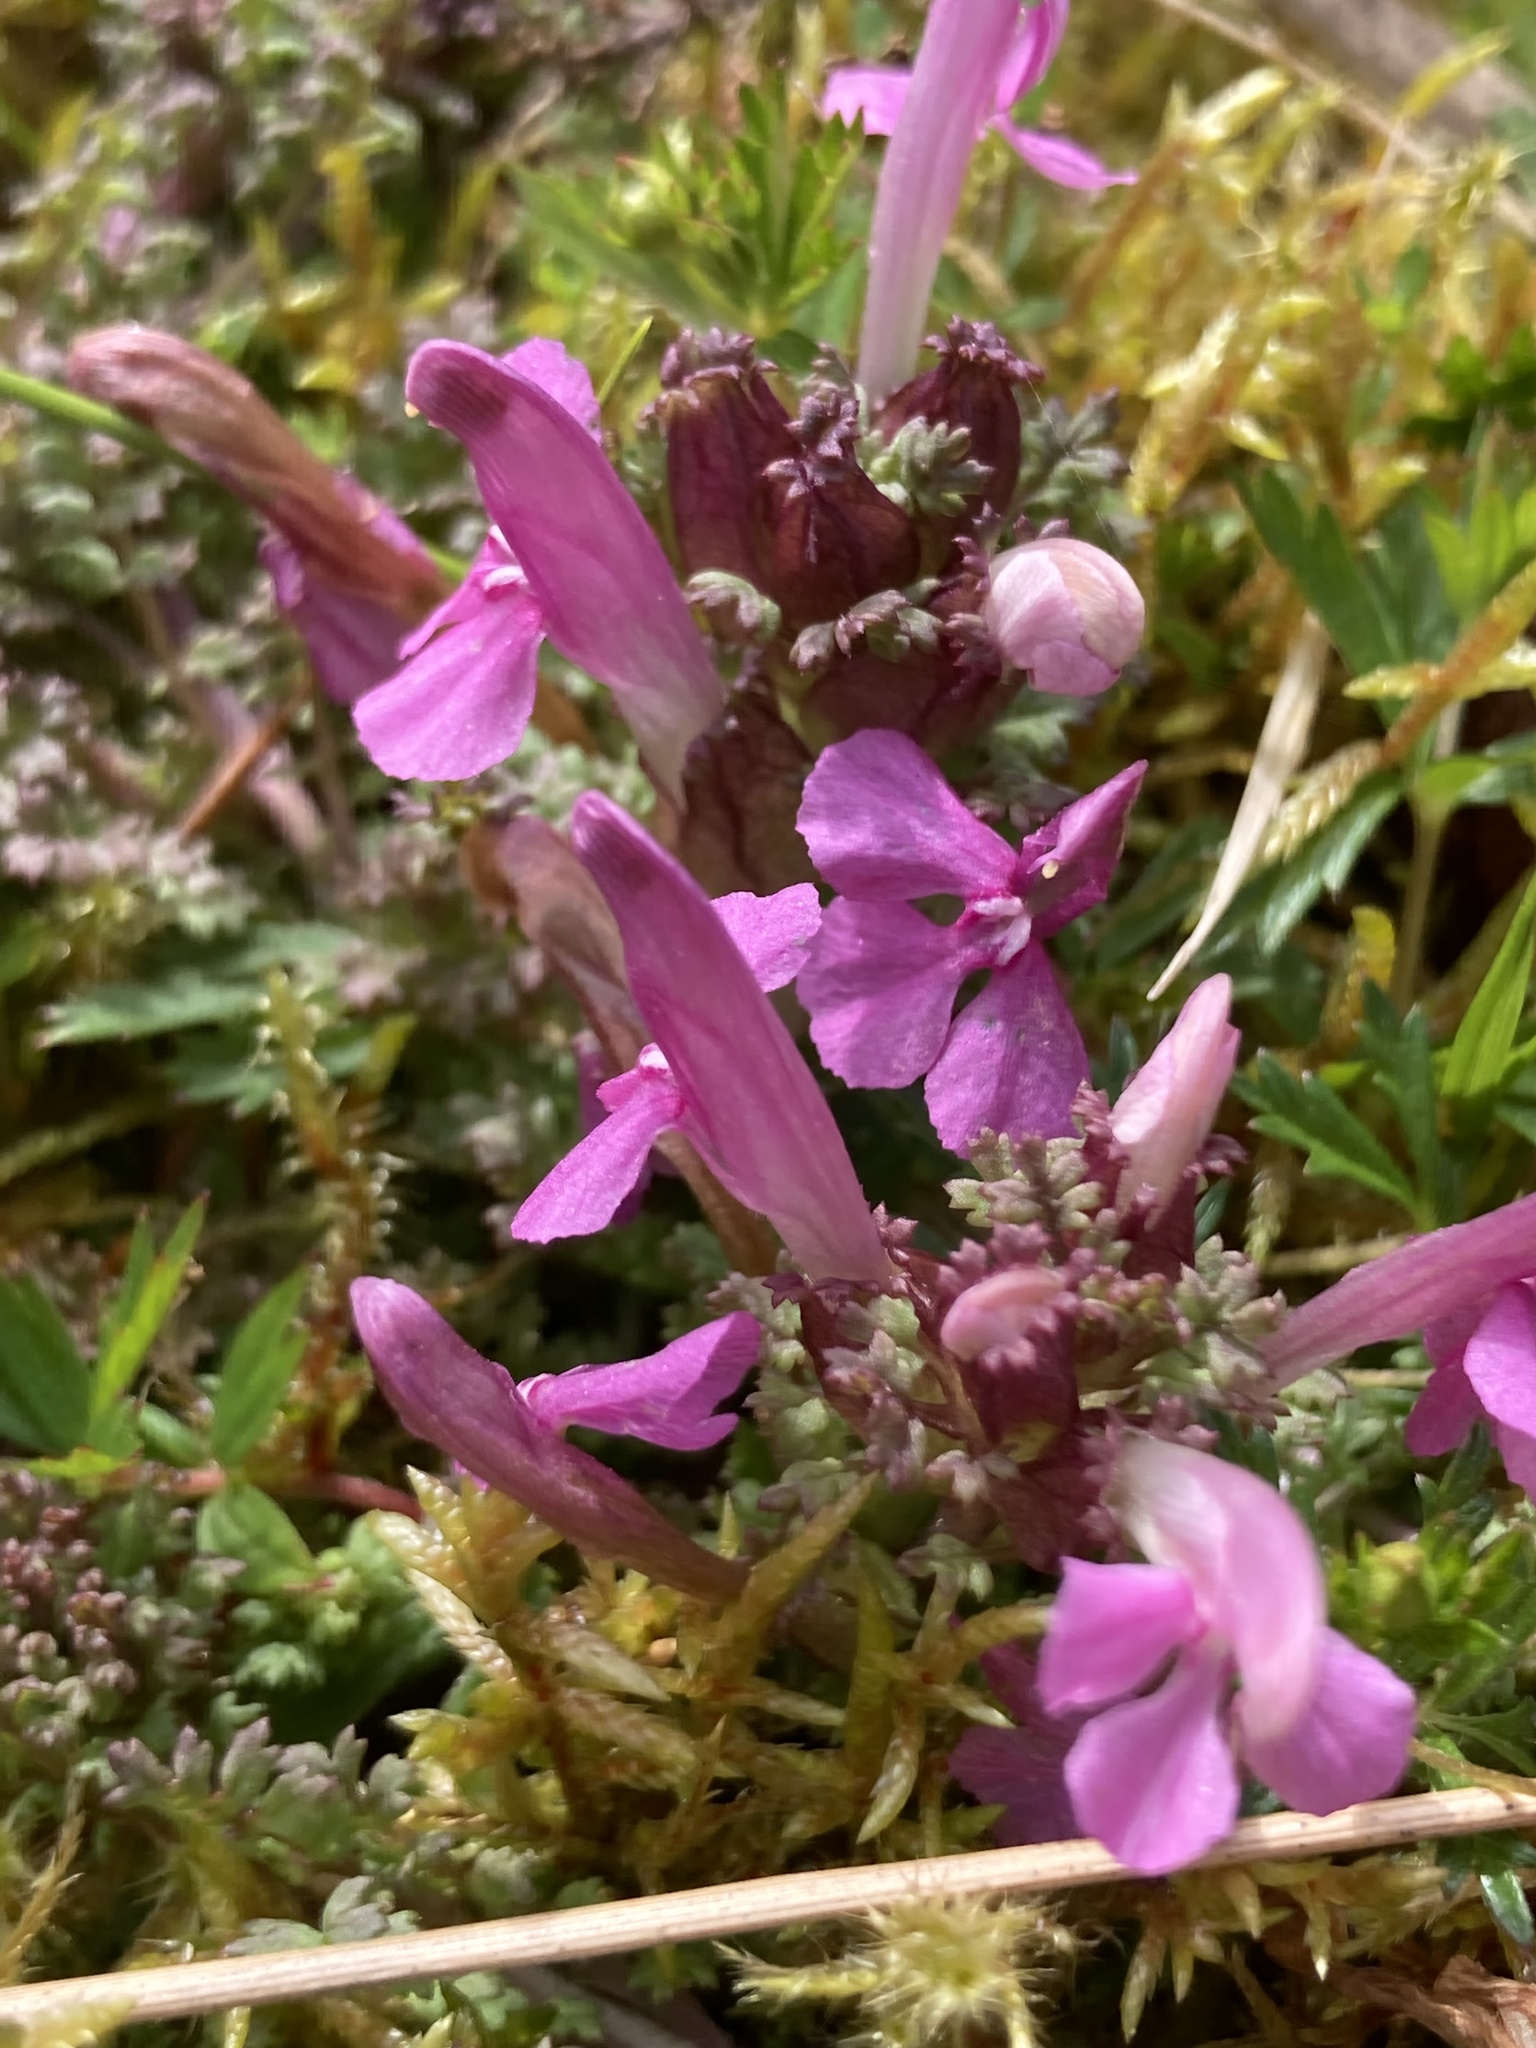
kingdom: Plantae
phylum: Tracheophyta
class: Magnoliopsida
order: Lamiales
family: Orobanchaceae
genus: Pedicularis
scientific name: Pedicularis sylvatica
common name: Lousewort
